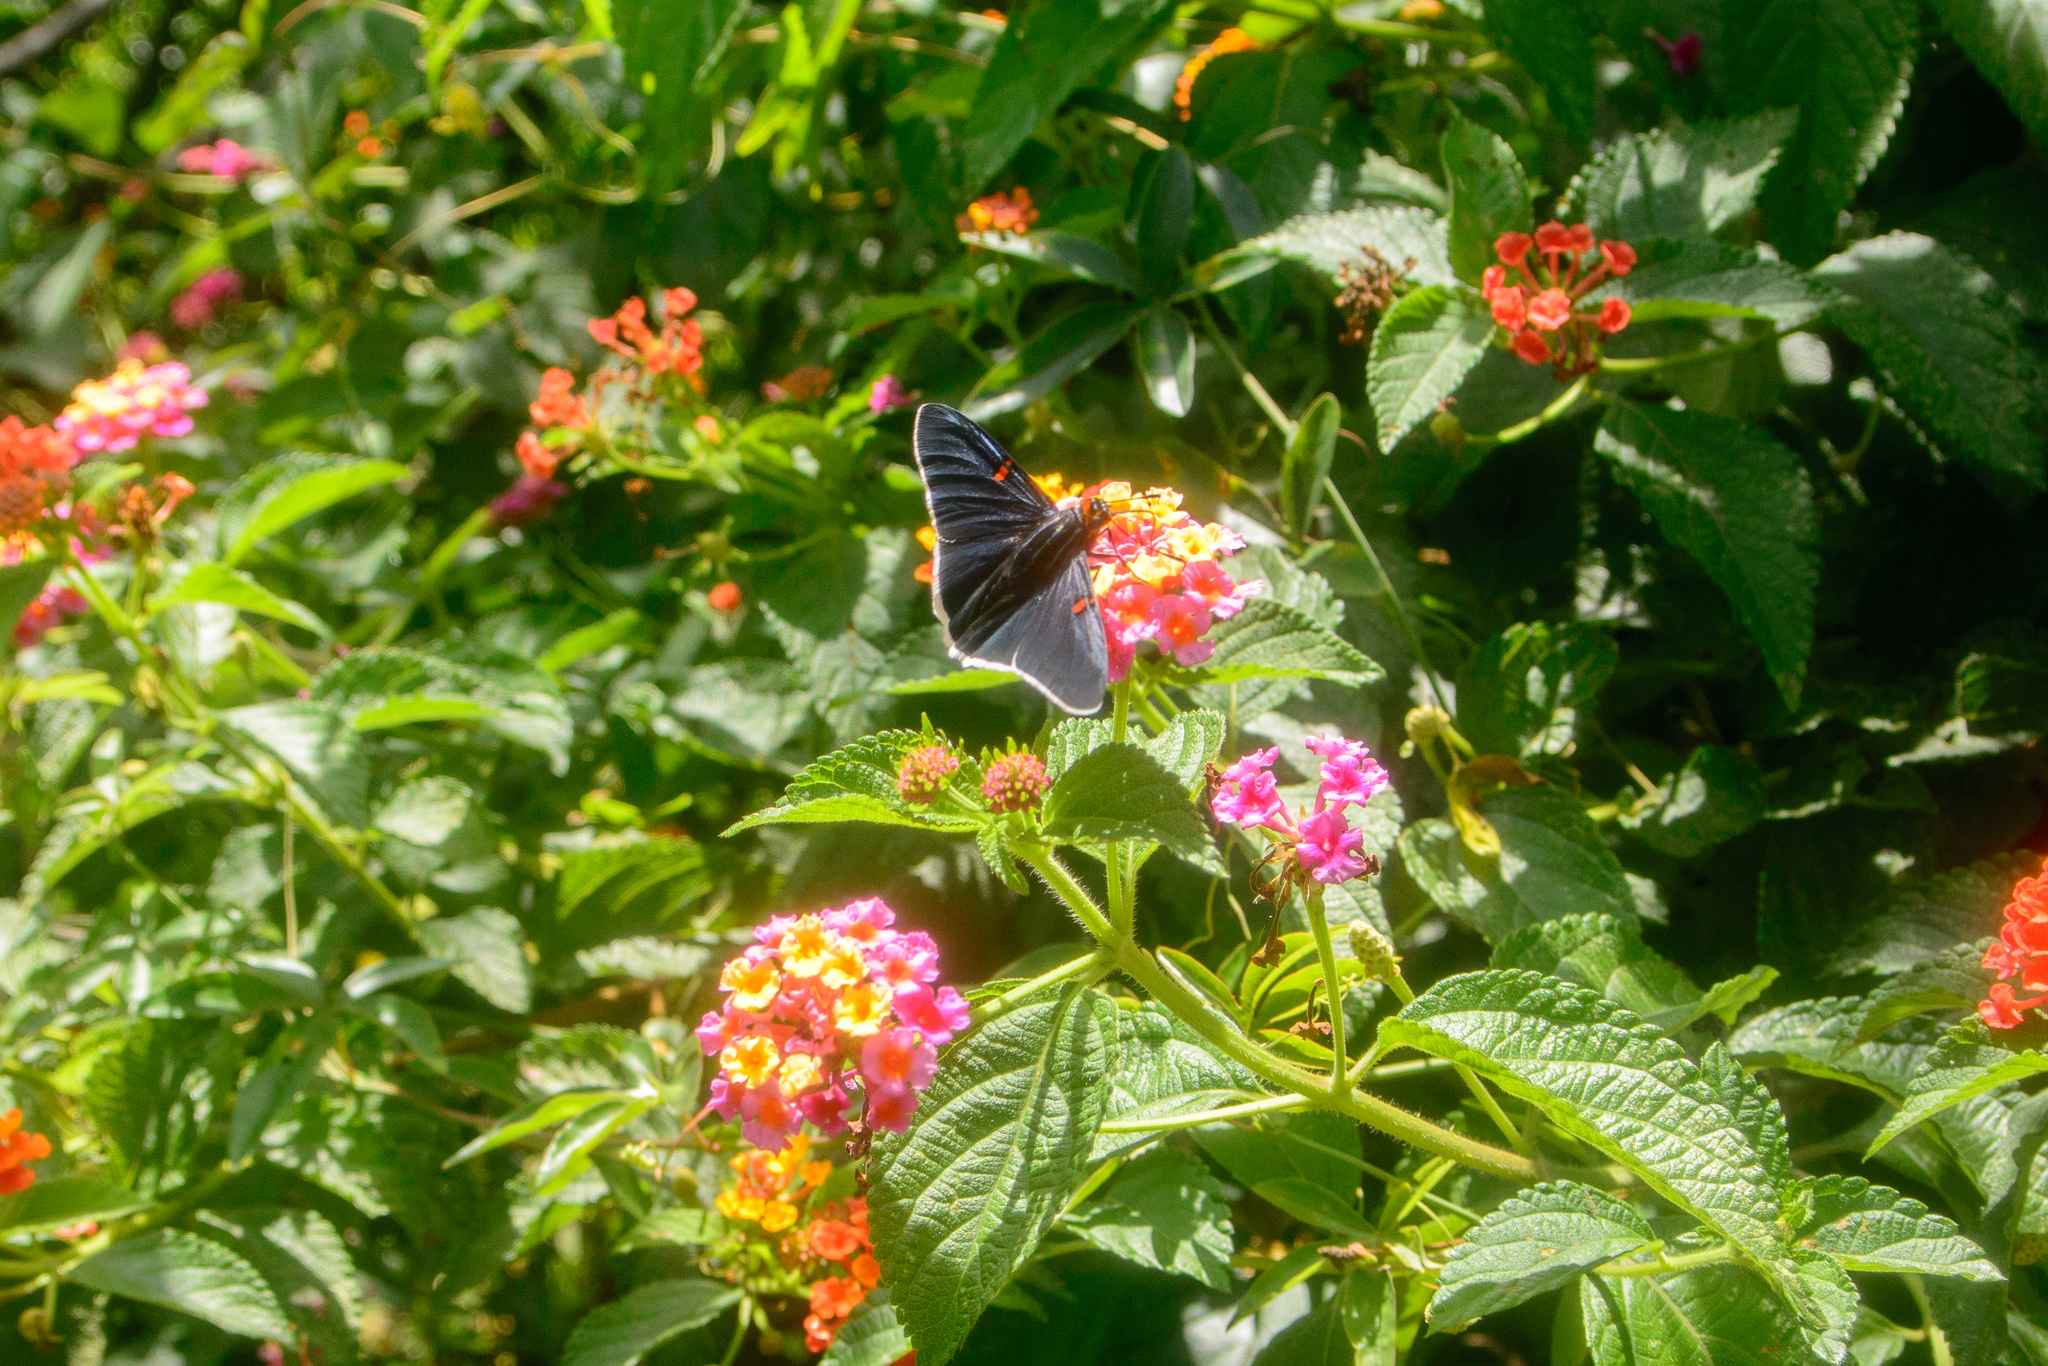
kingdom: Animalia
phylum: Arthropoda
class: Insecta
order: Lepidoptera
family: Hesperiidae
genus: Phocides
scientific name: Phocides lilea
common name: Guava skipper
